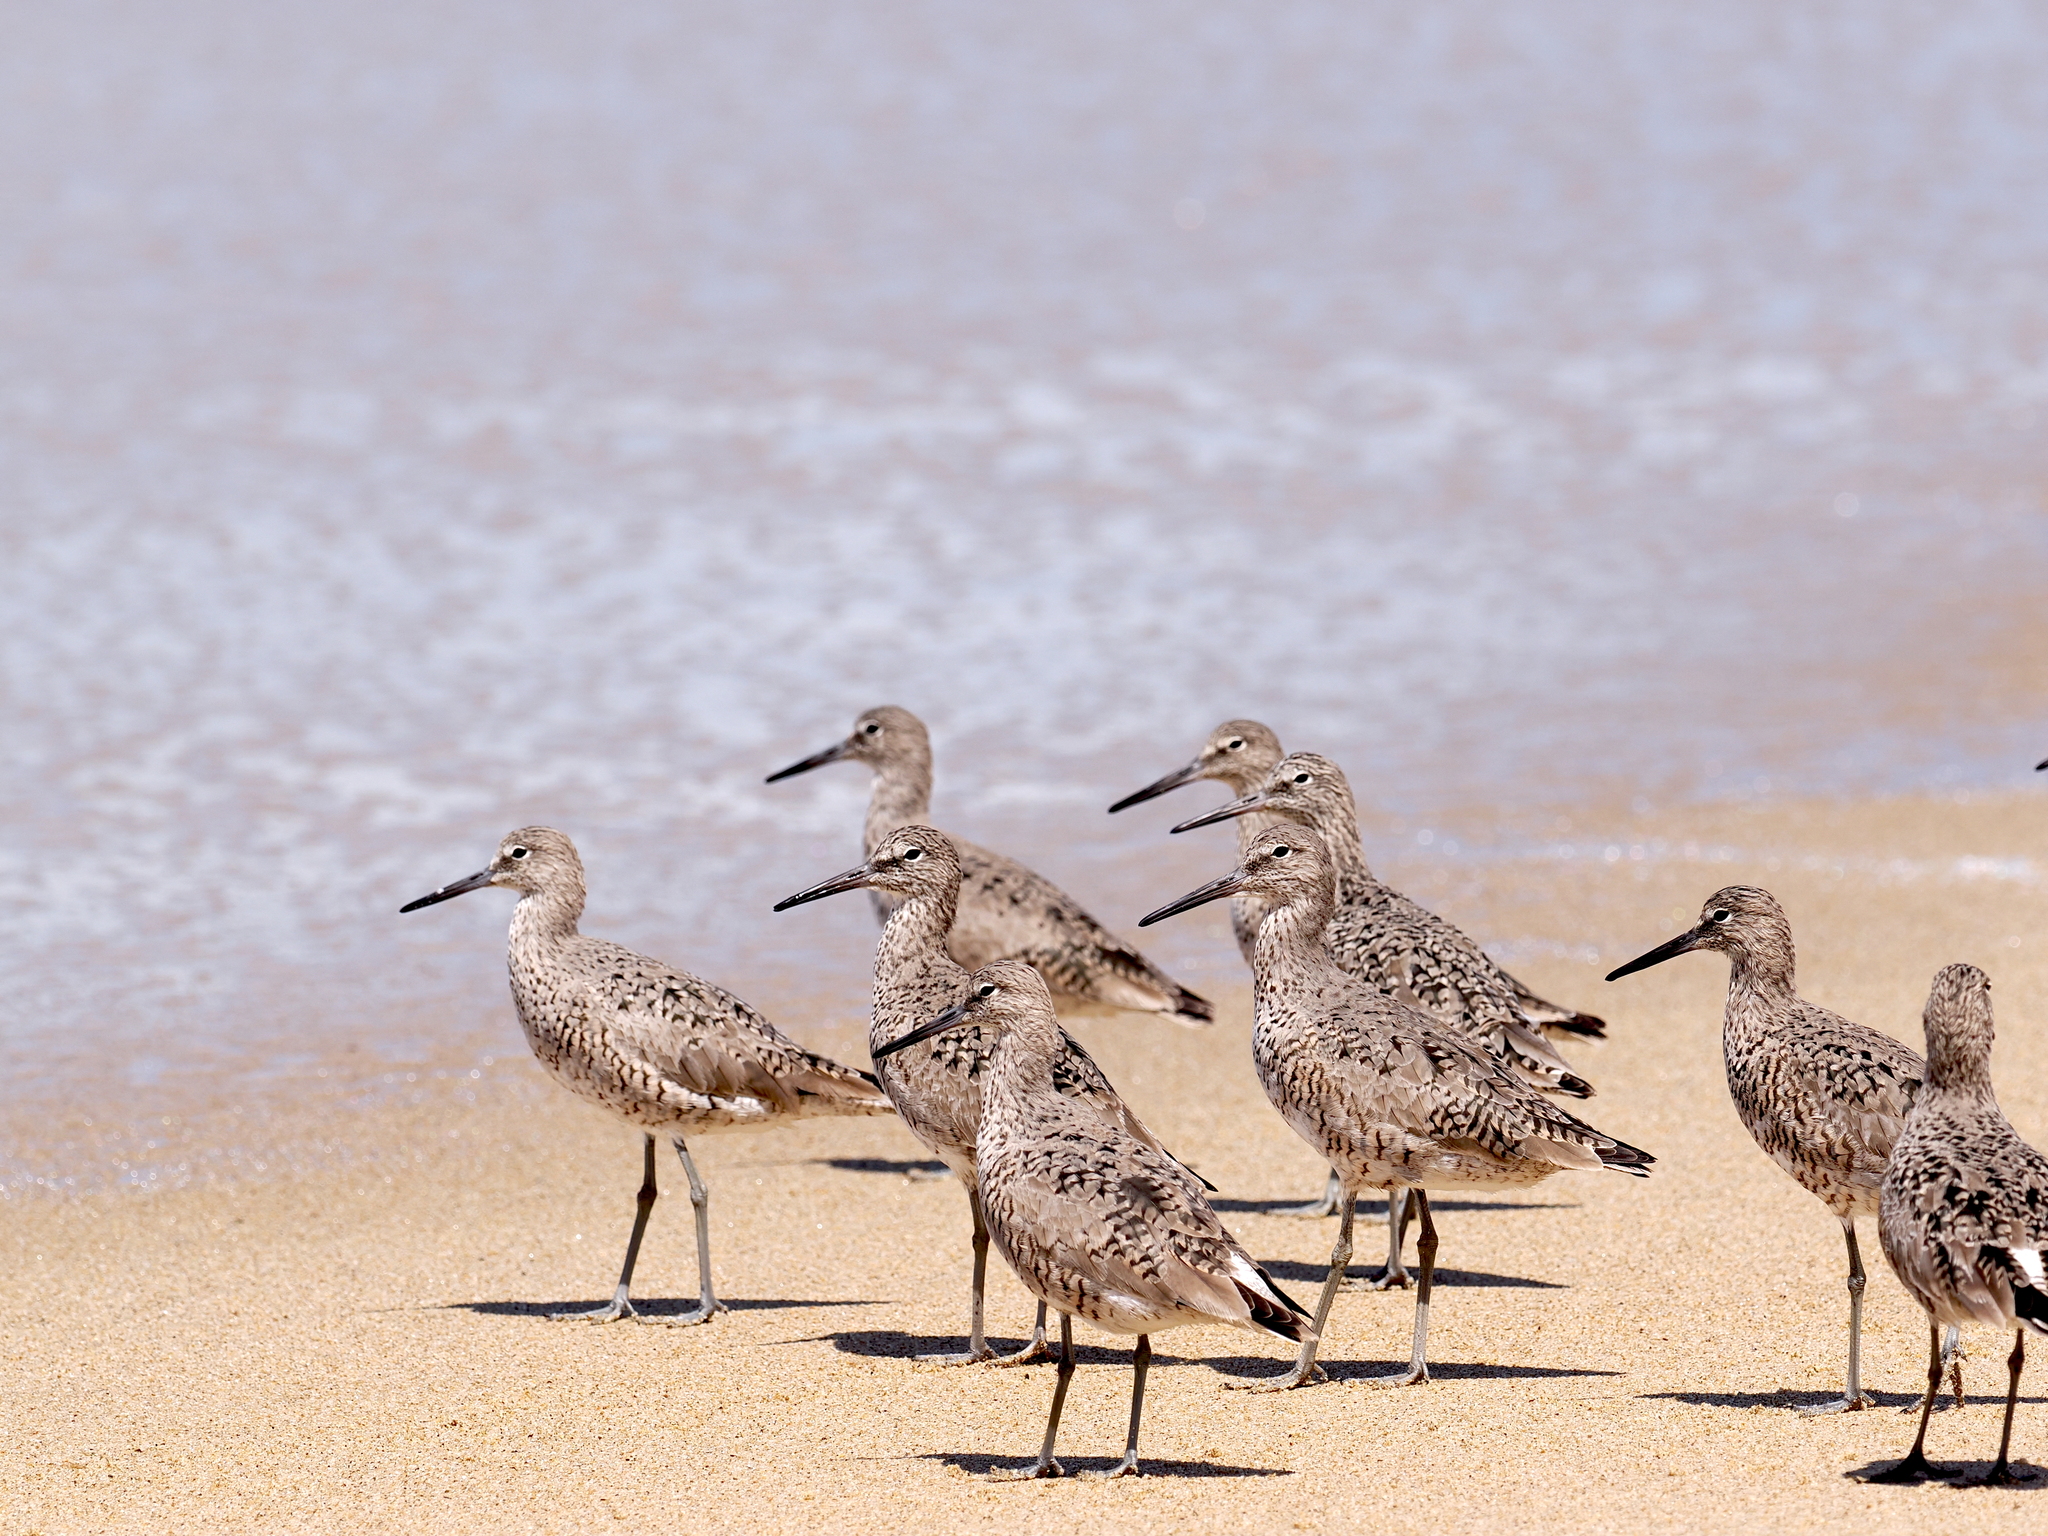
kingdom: Animalia
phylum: Chordata
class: Aves
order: Charadriiformes
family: Scolopacidae
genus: Tringa
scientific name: Tringa semipalmata
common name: Willet
